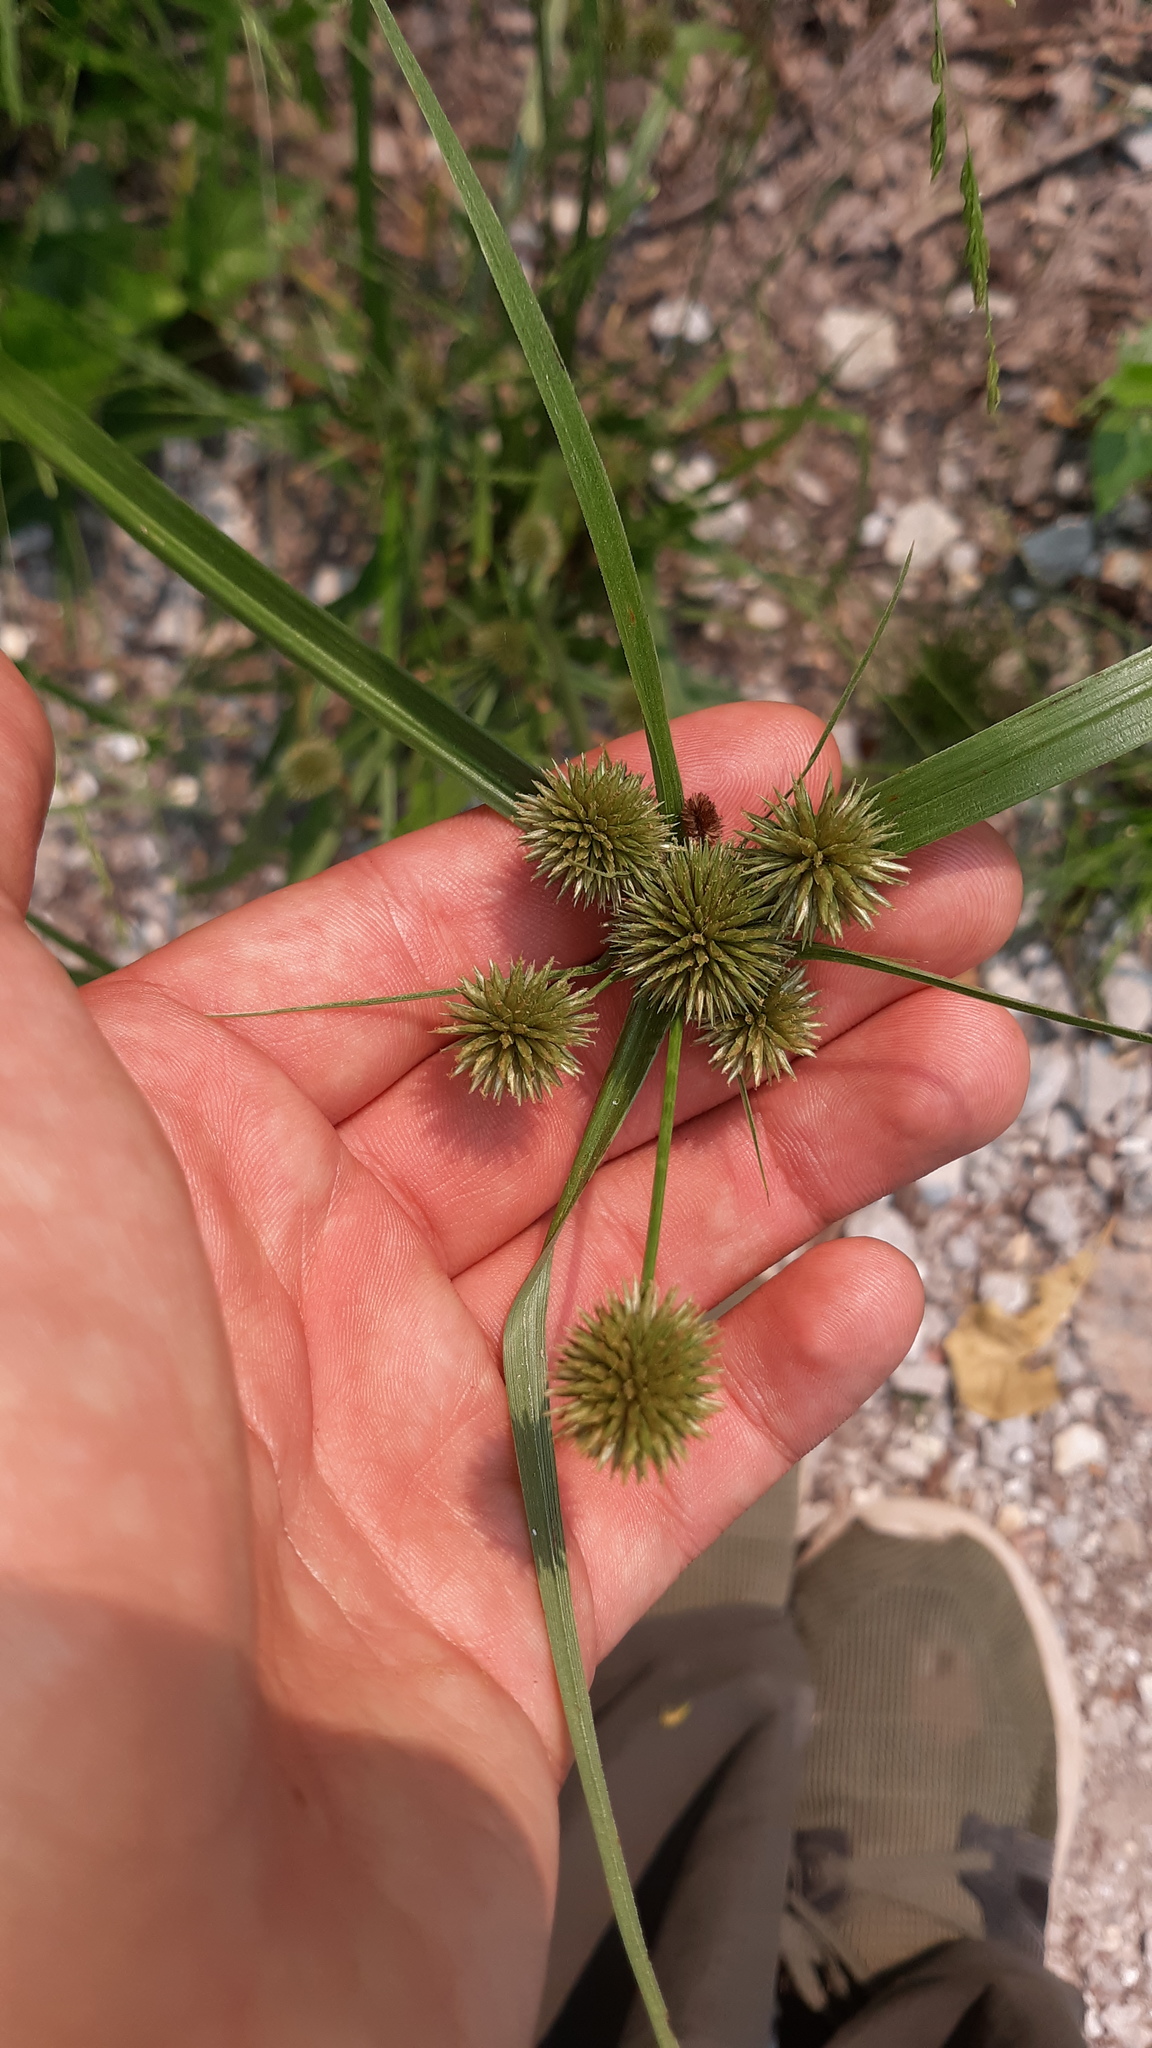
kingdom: Plantae
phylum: Tracheophyta
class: Liliopsida
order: Poales
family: Cyperaceae
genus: Cyperus
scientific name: Cyperus echinatus
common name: Teasel sedge
